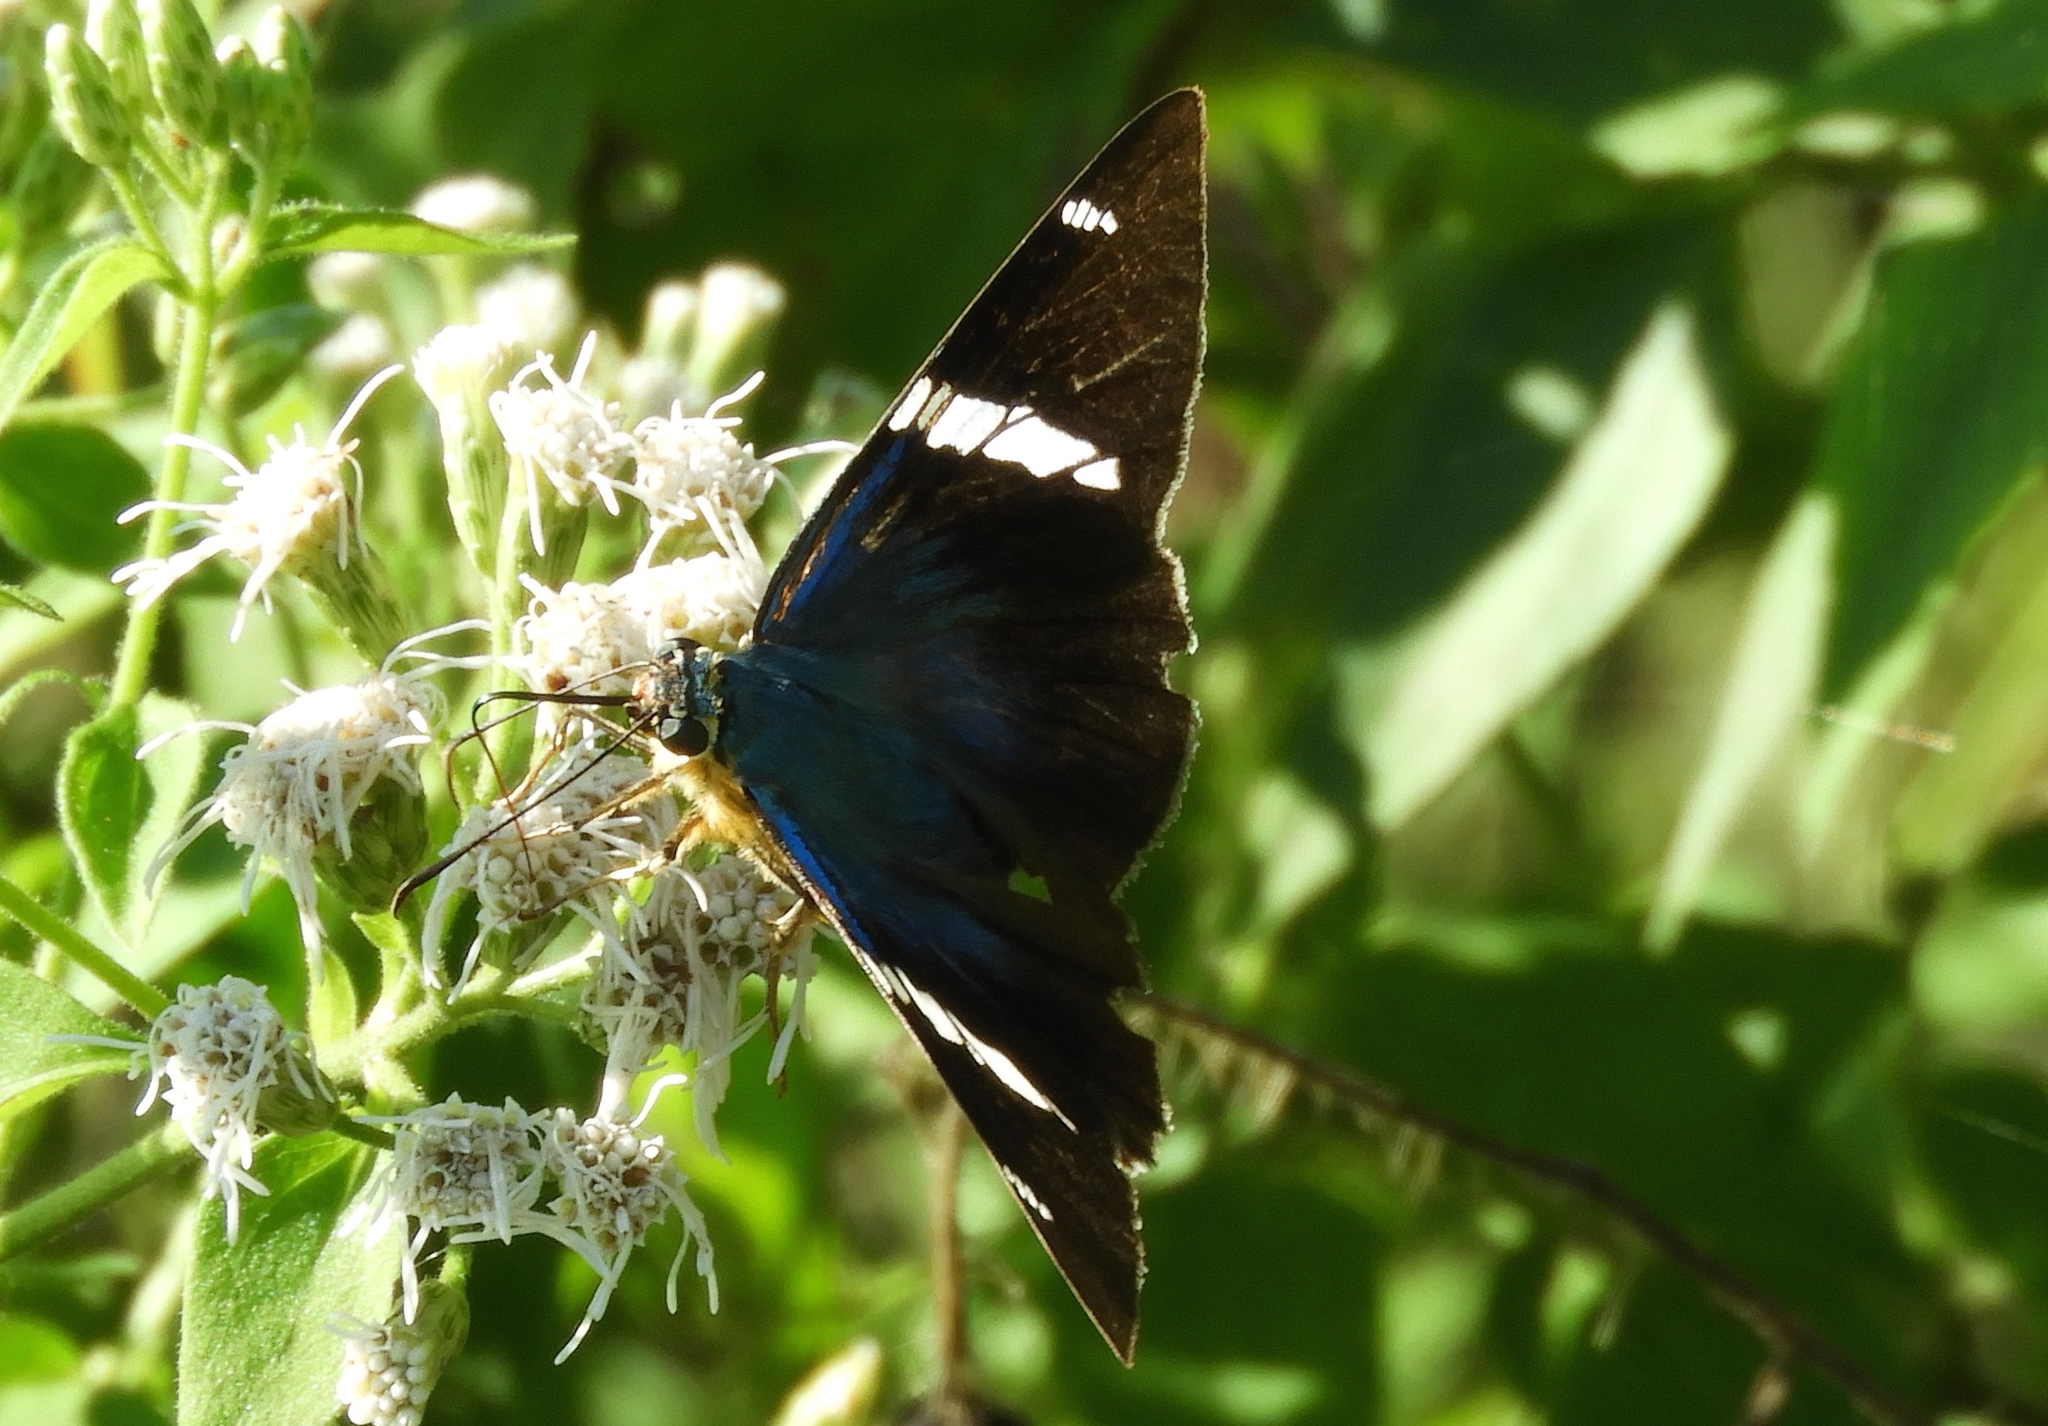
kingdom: Animalia
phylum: Arthropoda
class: Insecta
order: Lepidoptera
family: Hesperiidae
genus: Astraptes
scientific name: Astraptes fulgerator
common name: Two-barred flasher
